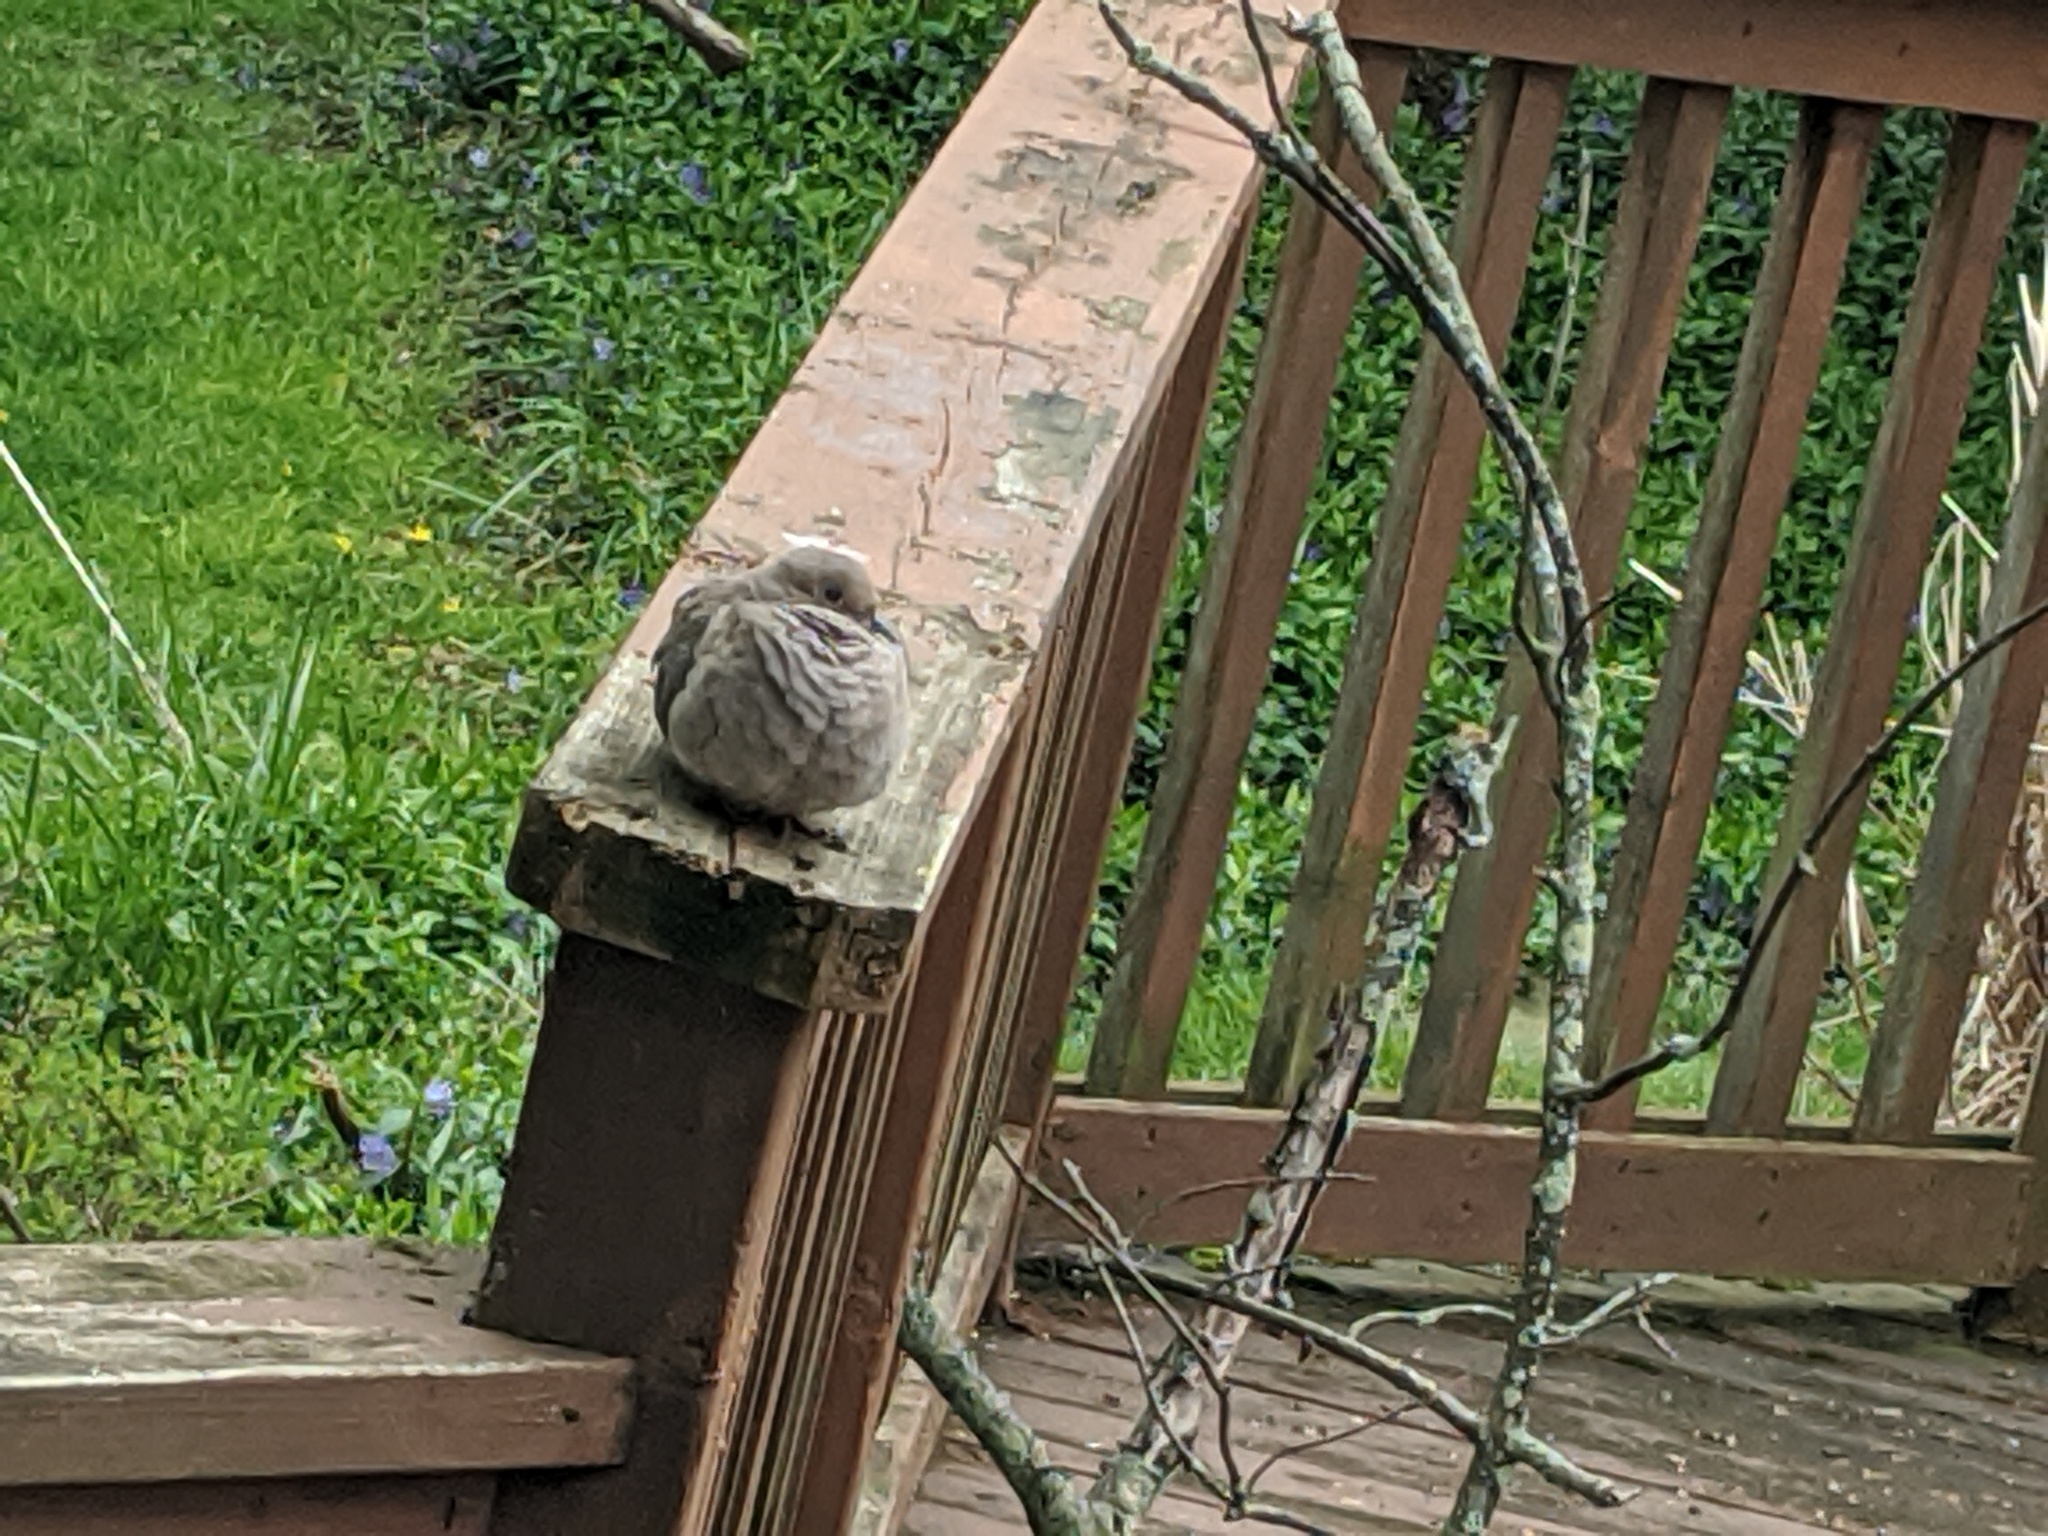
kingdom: Animalia
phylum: Chordata
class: Aves
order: Columbiformes
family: Columbidae
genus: Zenaida
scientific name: Zenaida macroura
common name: Mourning dove
